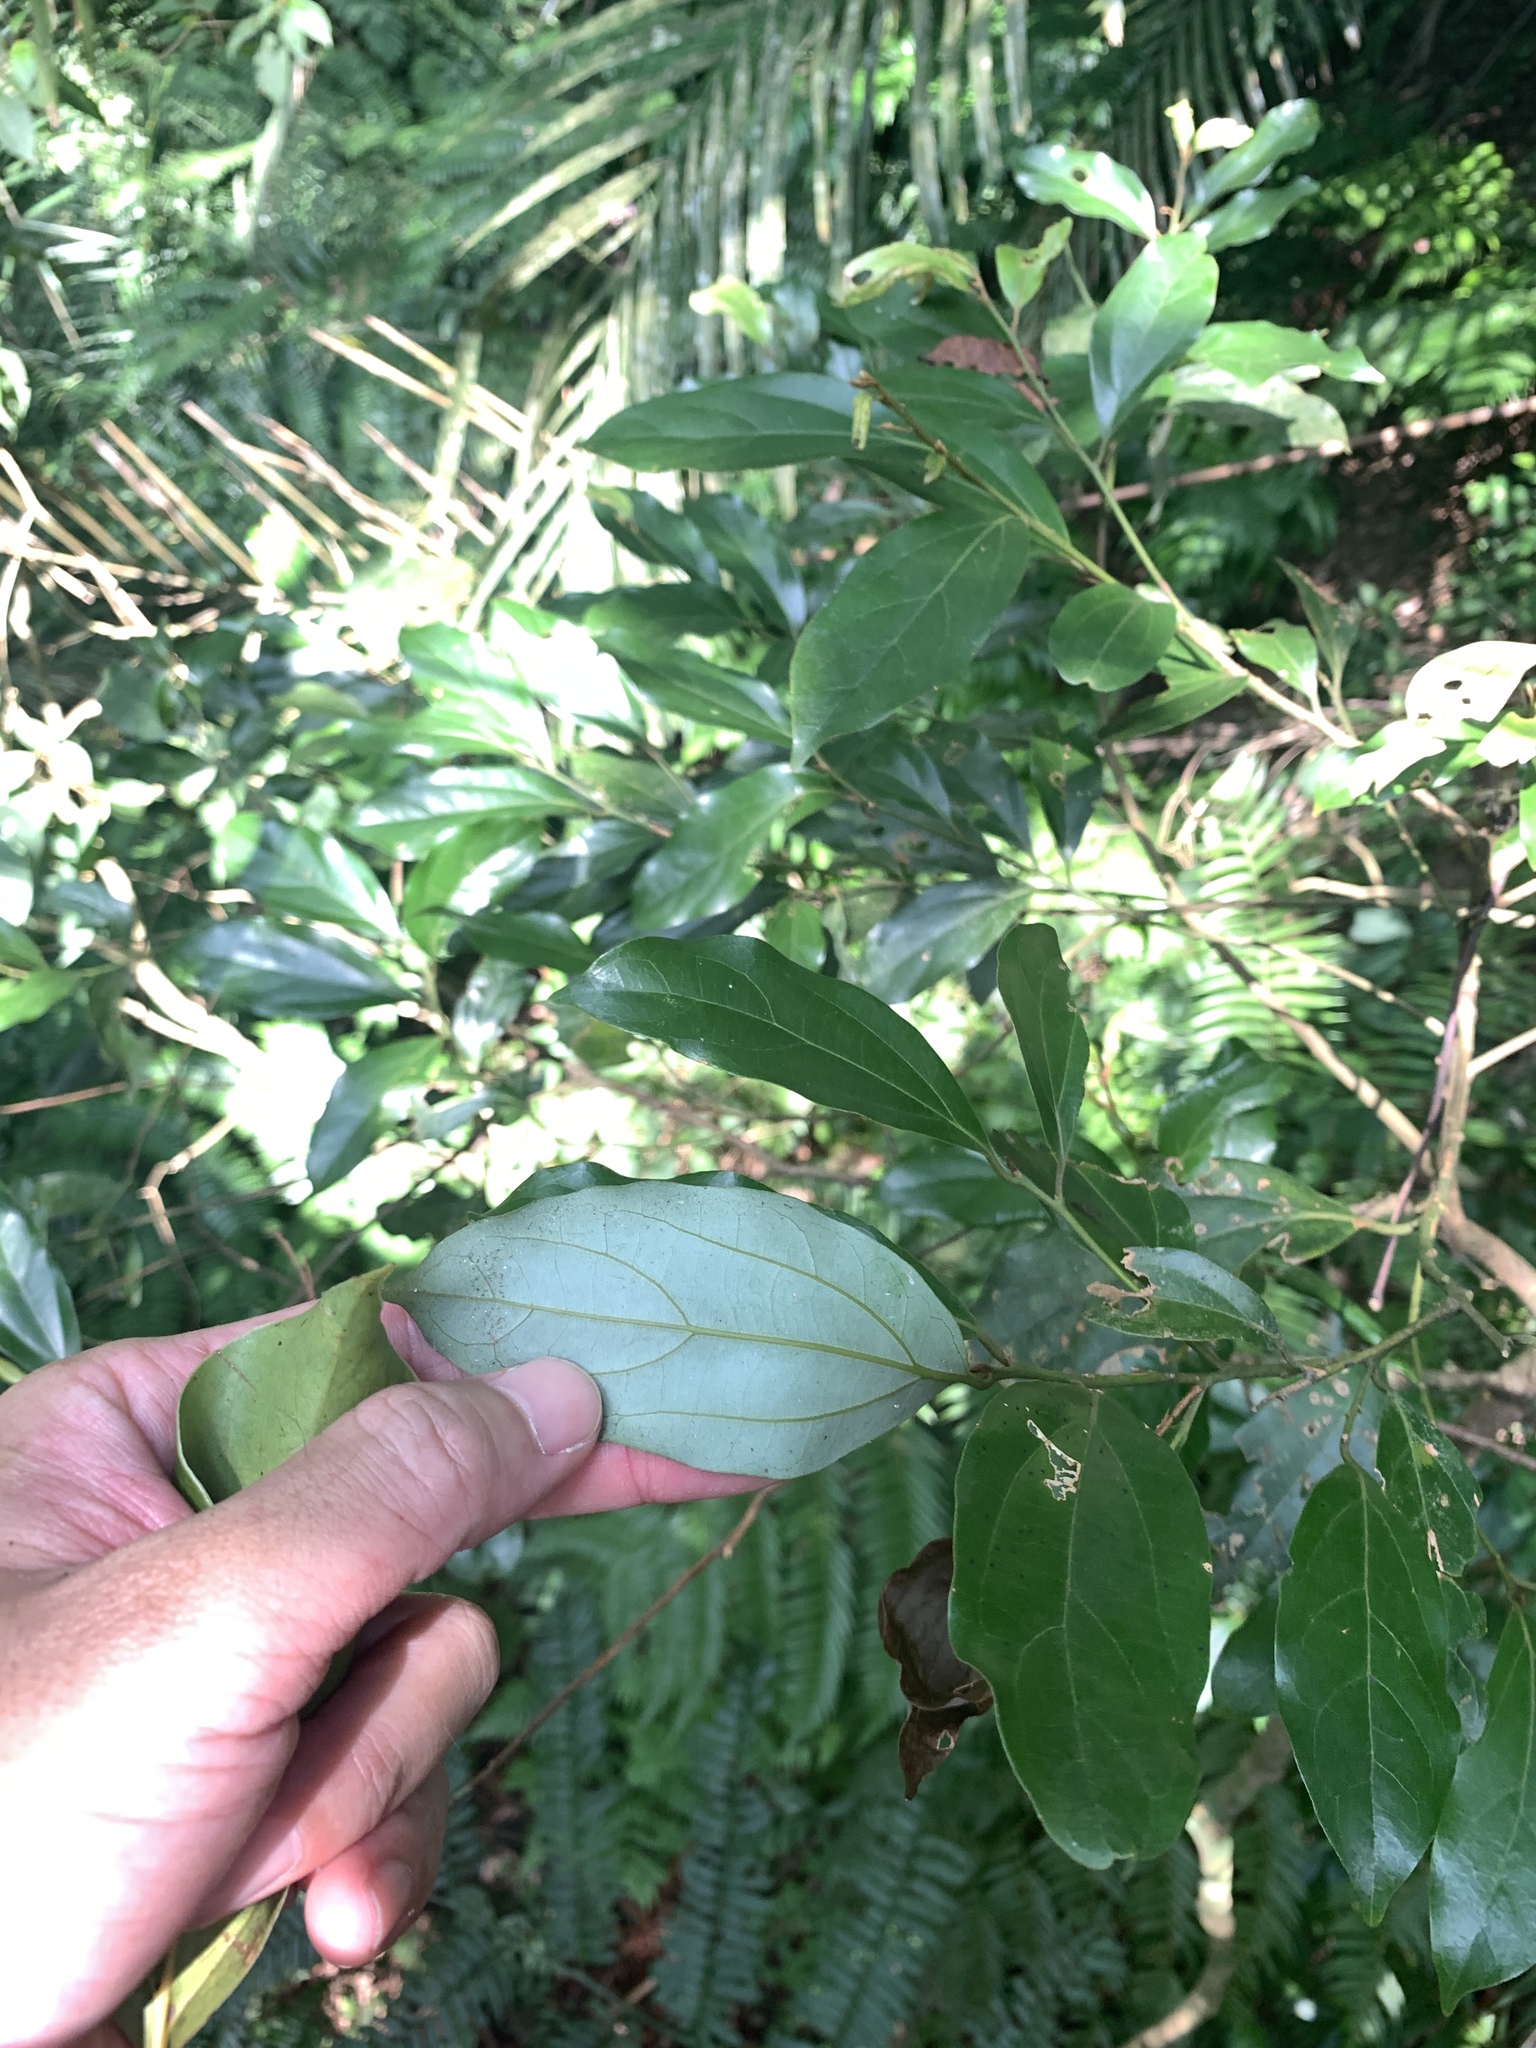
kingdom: Plantae
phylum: Tracheophyta
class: Magnoliopsida
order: Laurales
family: Lauraceae
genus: Cryptocarya
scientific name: Cryptocarya chinensis
